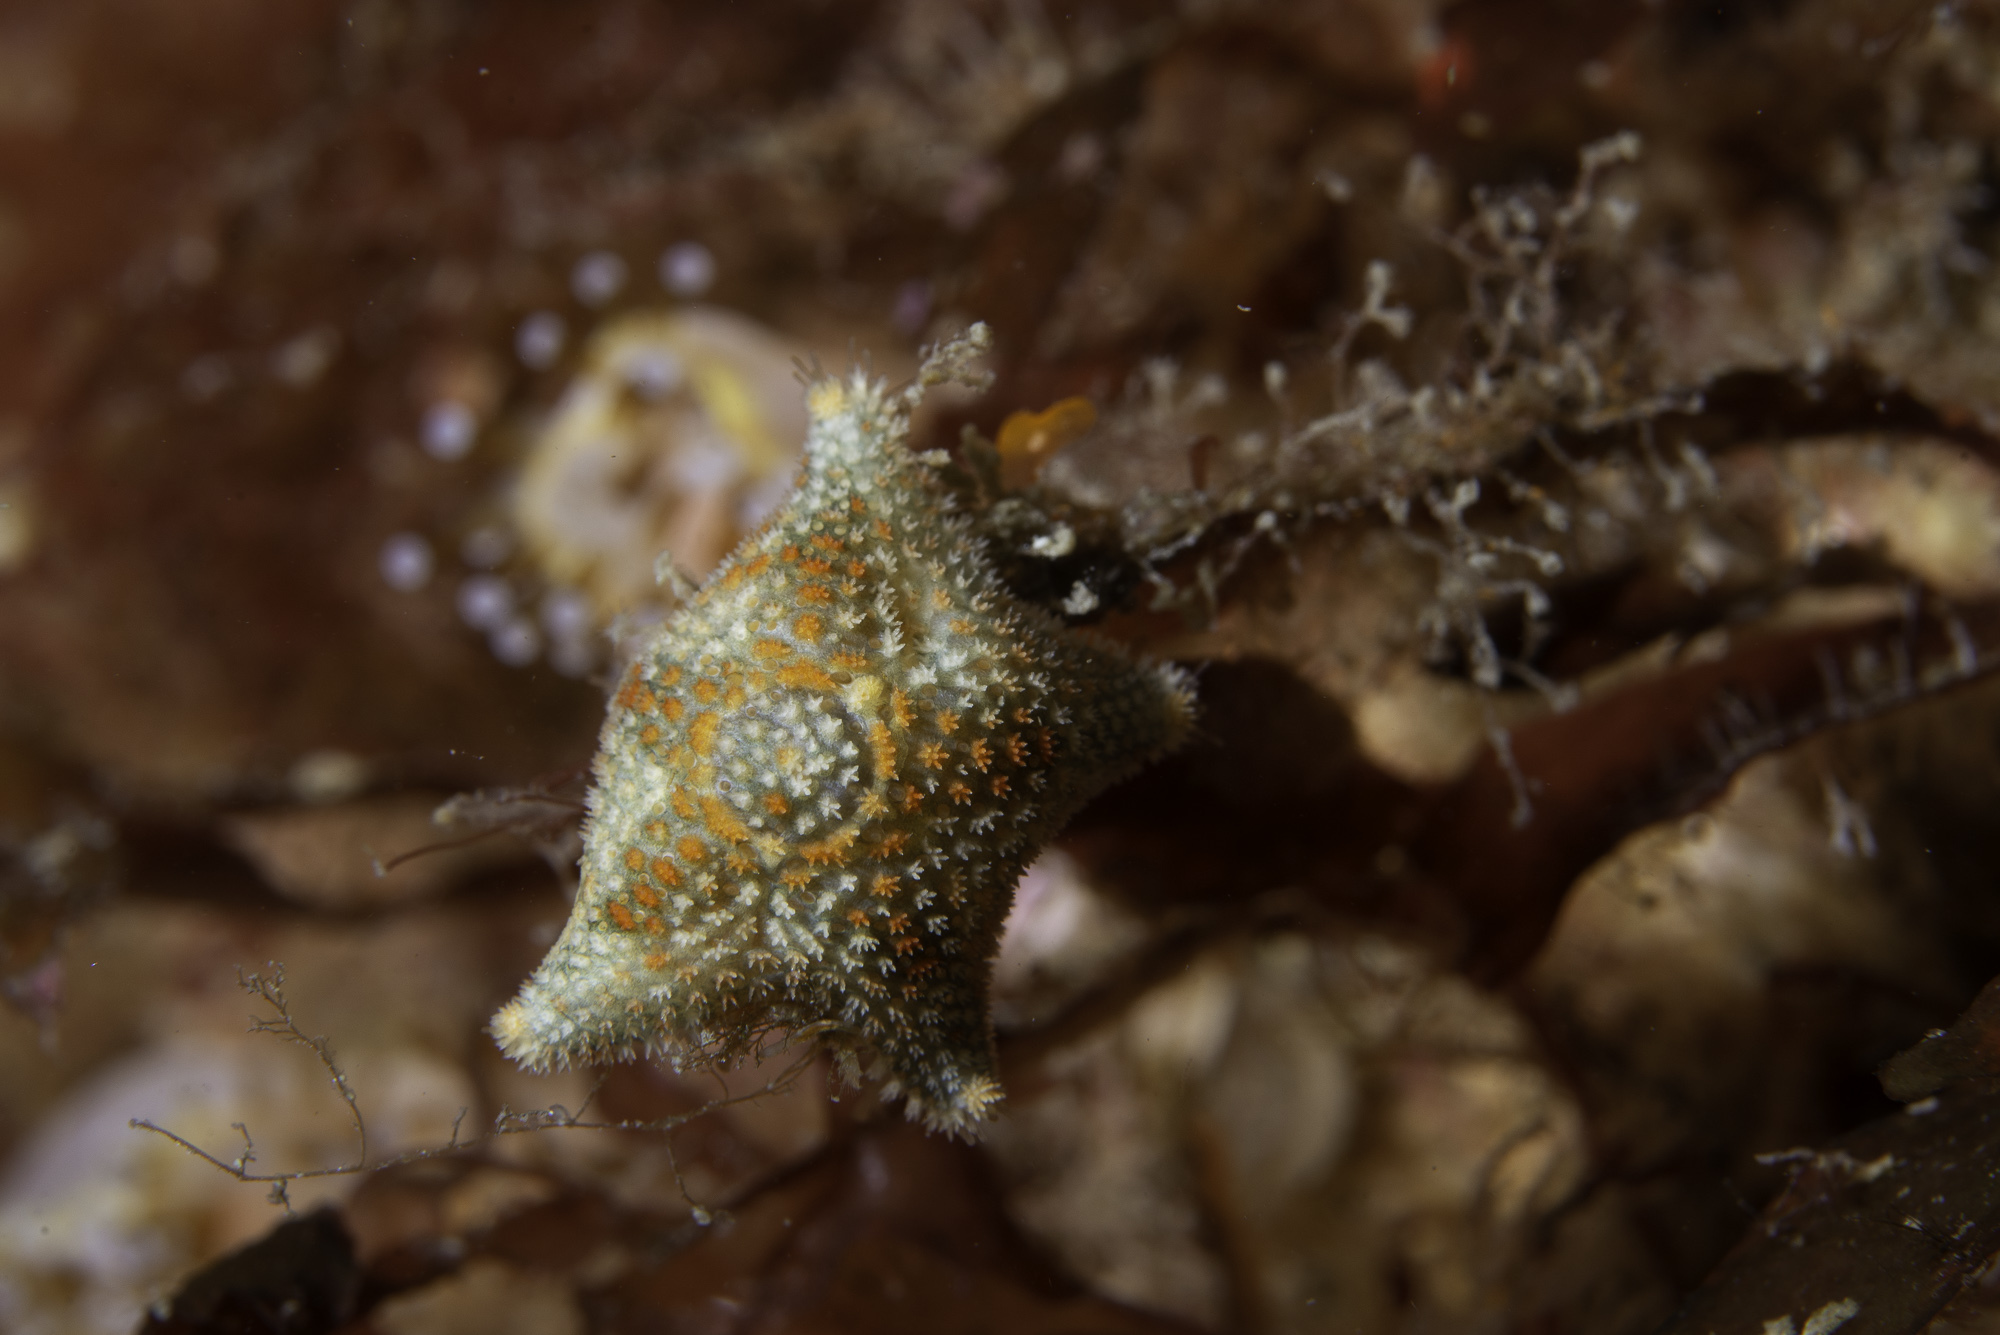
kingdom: Animalia
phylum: Echinodermata
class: Asteroidea
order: Valvatida
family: Asterinidae
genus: Asterina
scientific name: Asterina phylactica
